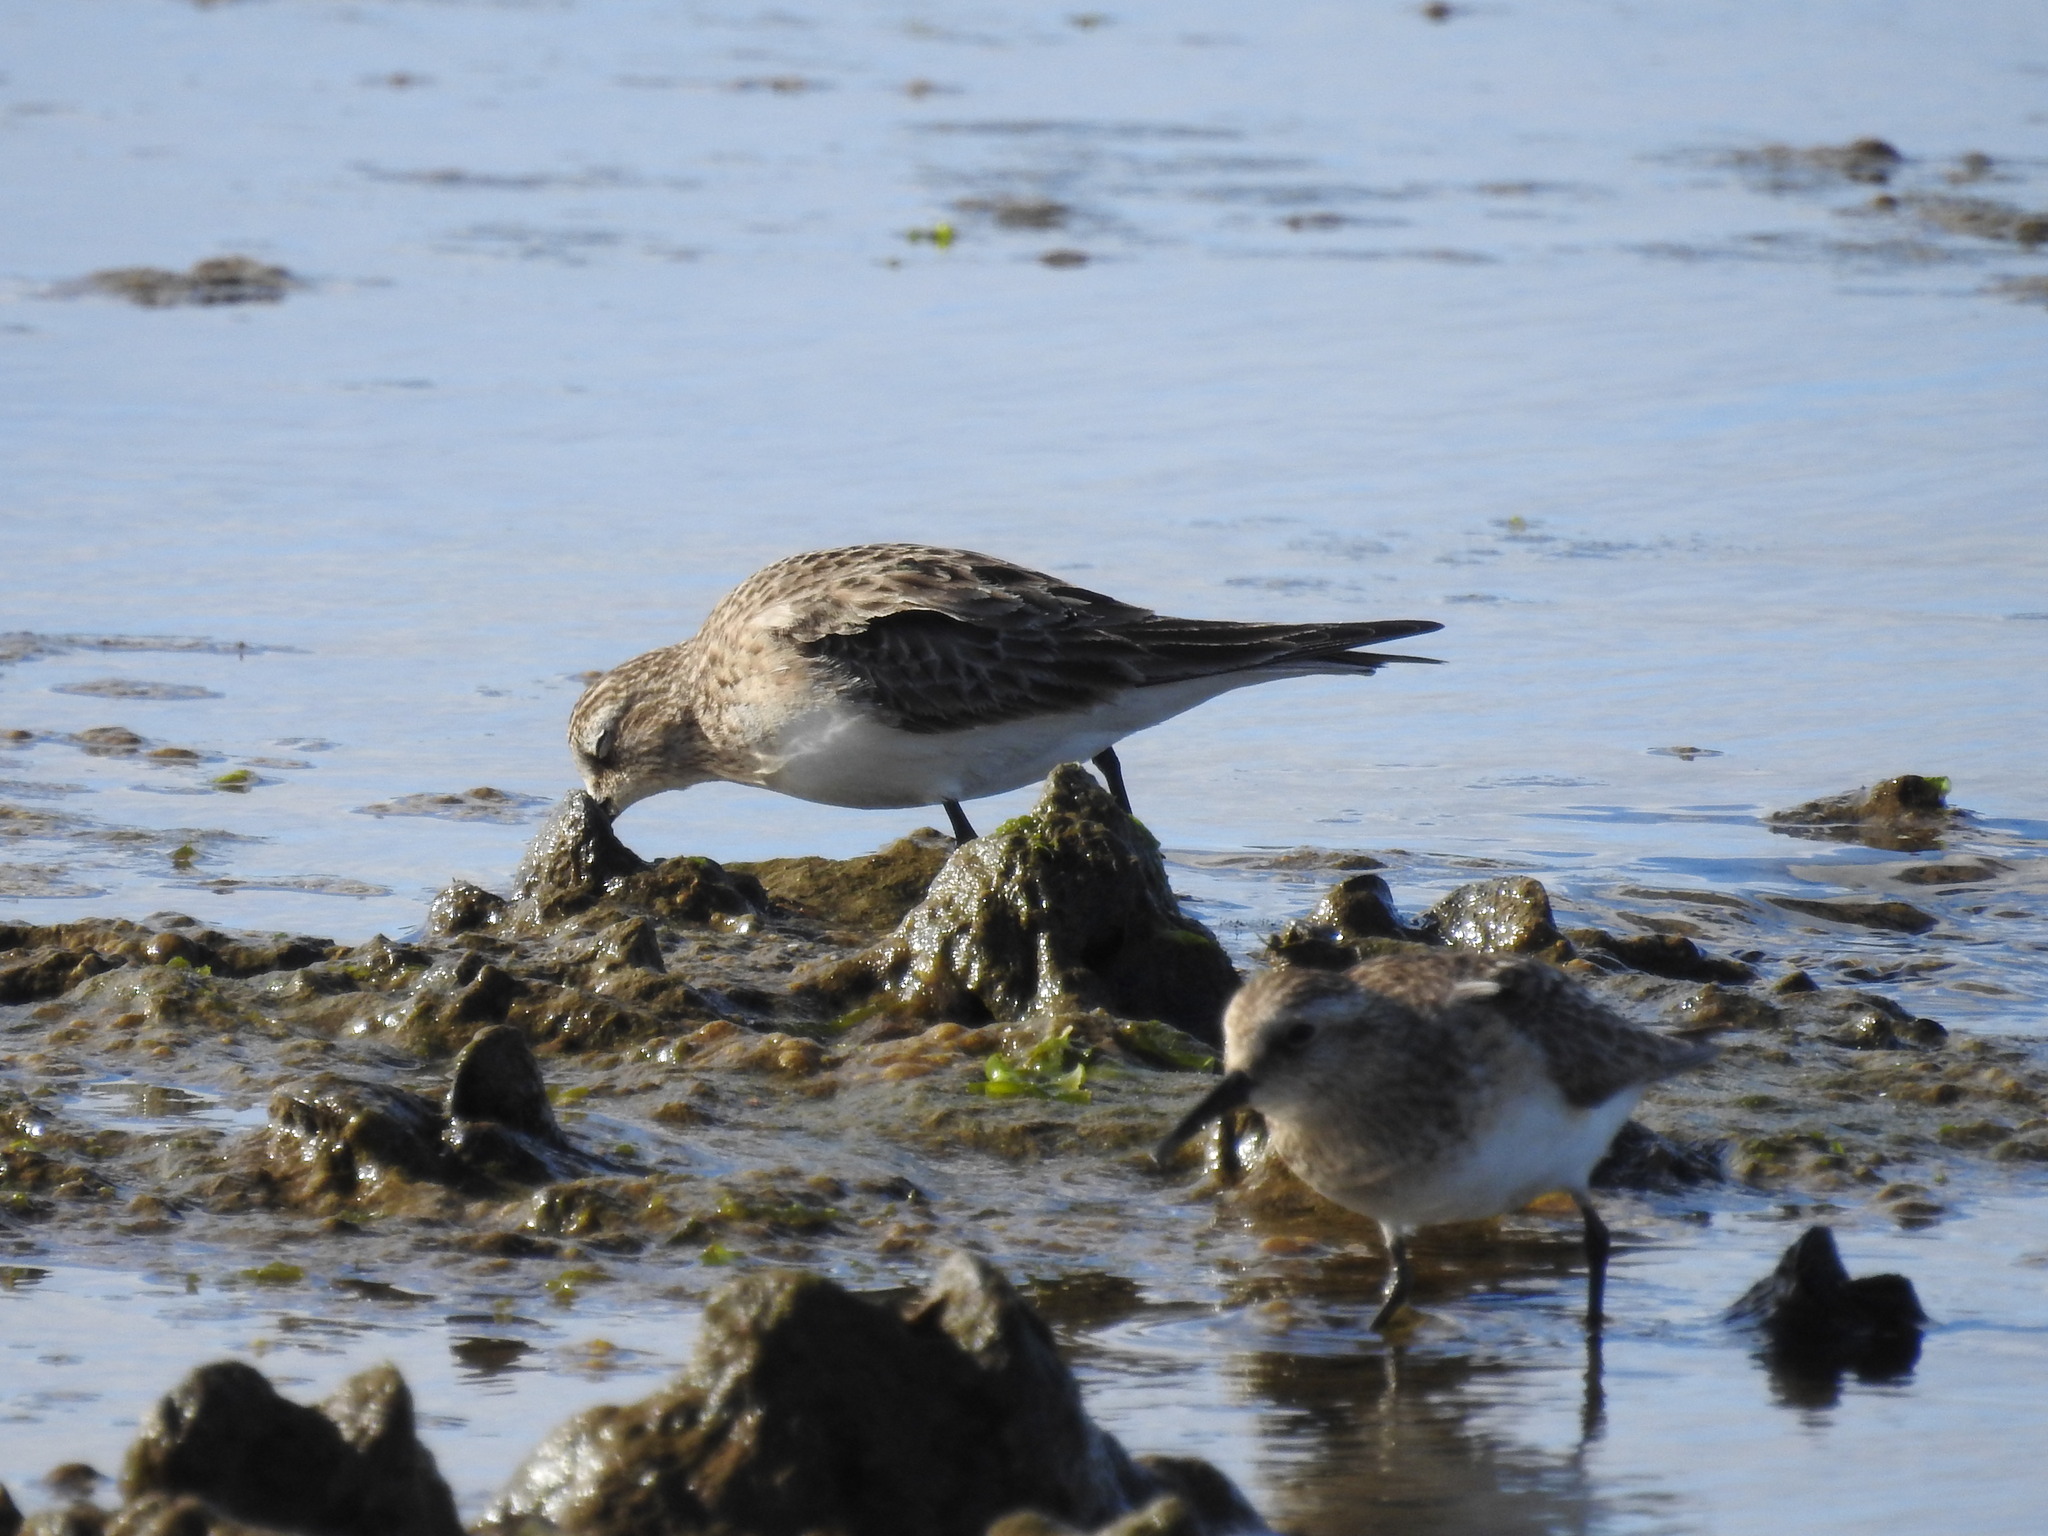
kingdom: Animalia
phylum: Chordata
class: Aves
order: Charadriiformes
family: Scolopacidae
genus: Calidris
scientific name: Calidris bairdii
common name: Baird's sandpiper
